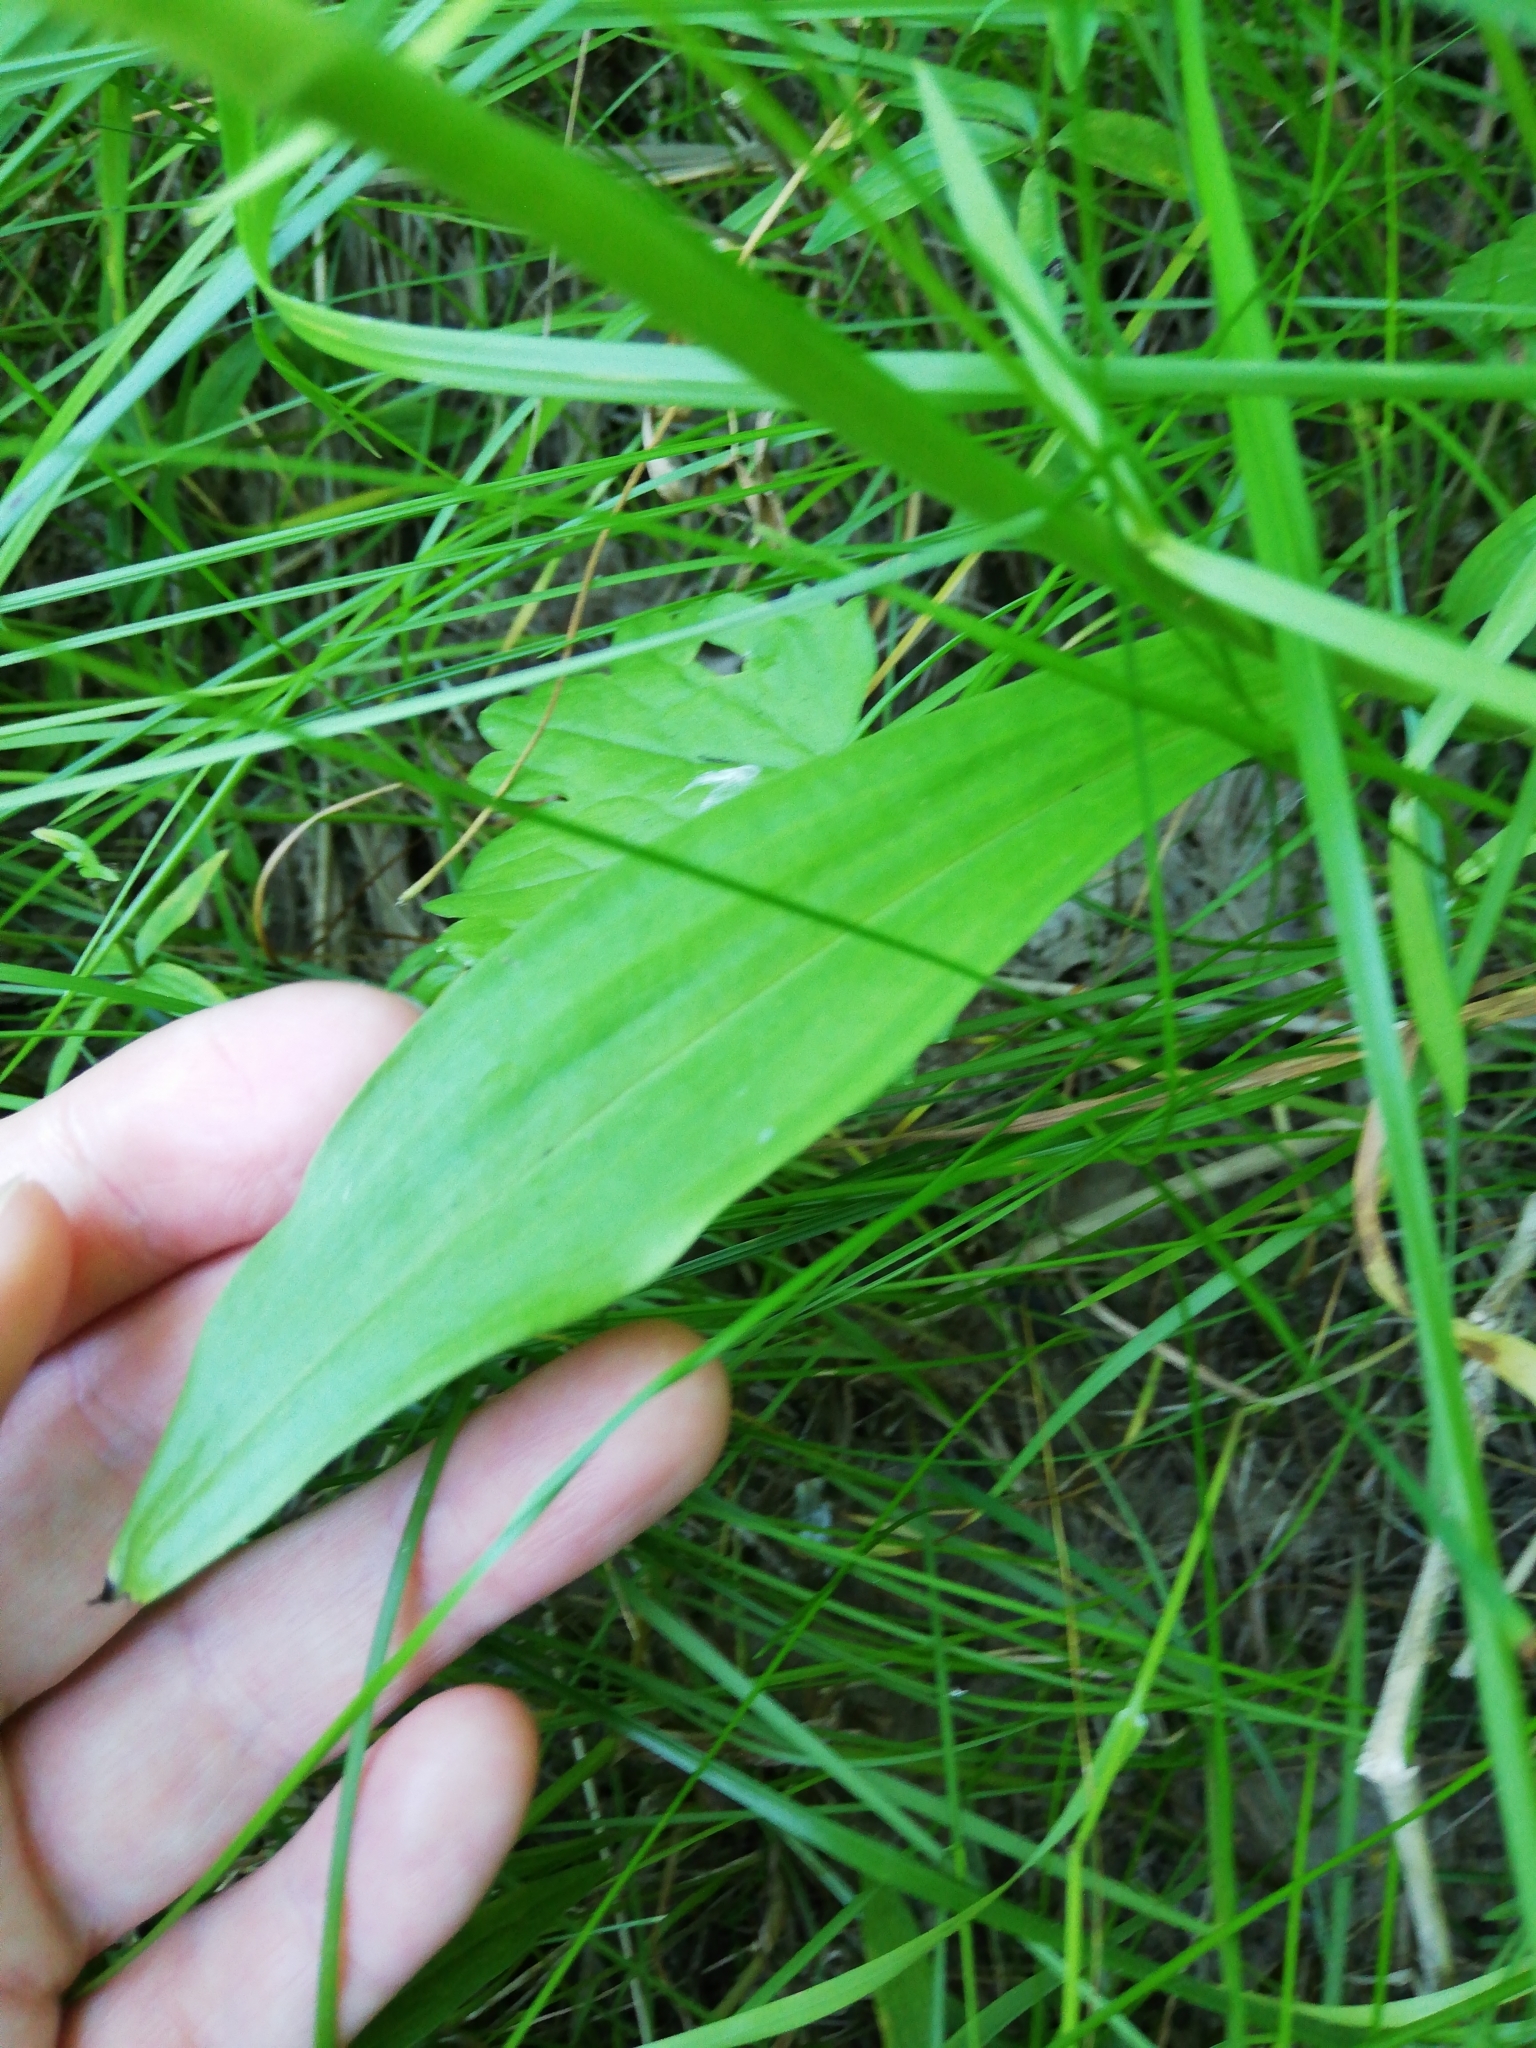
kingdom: Plantae
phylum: Tracheophyta
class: Liliopsida
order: Asparagales
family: Orchidaceae
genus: Dactylorhiza
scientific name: Dactylorhiza maculata
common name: Heath spotted-orchid
